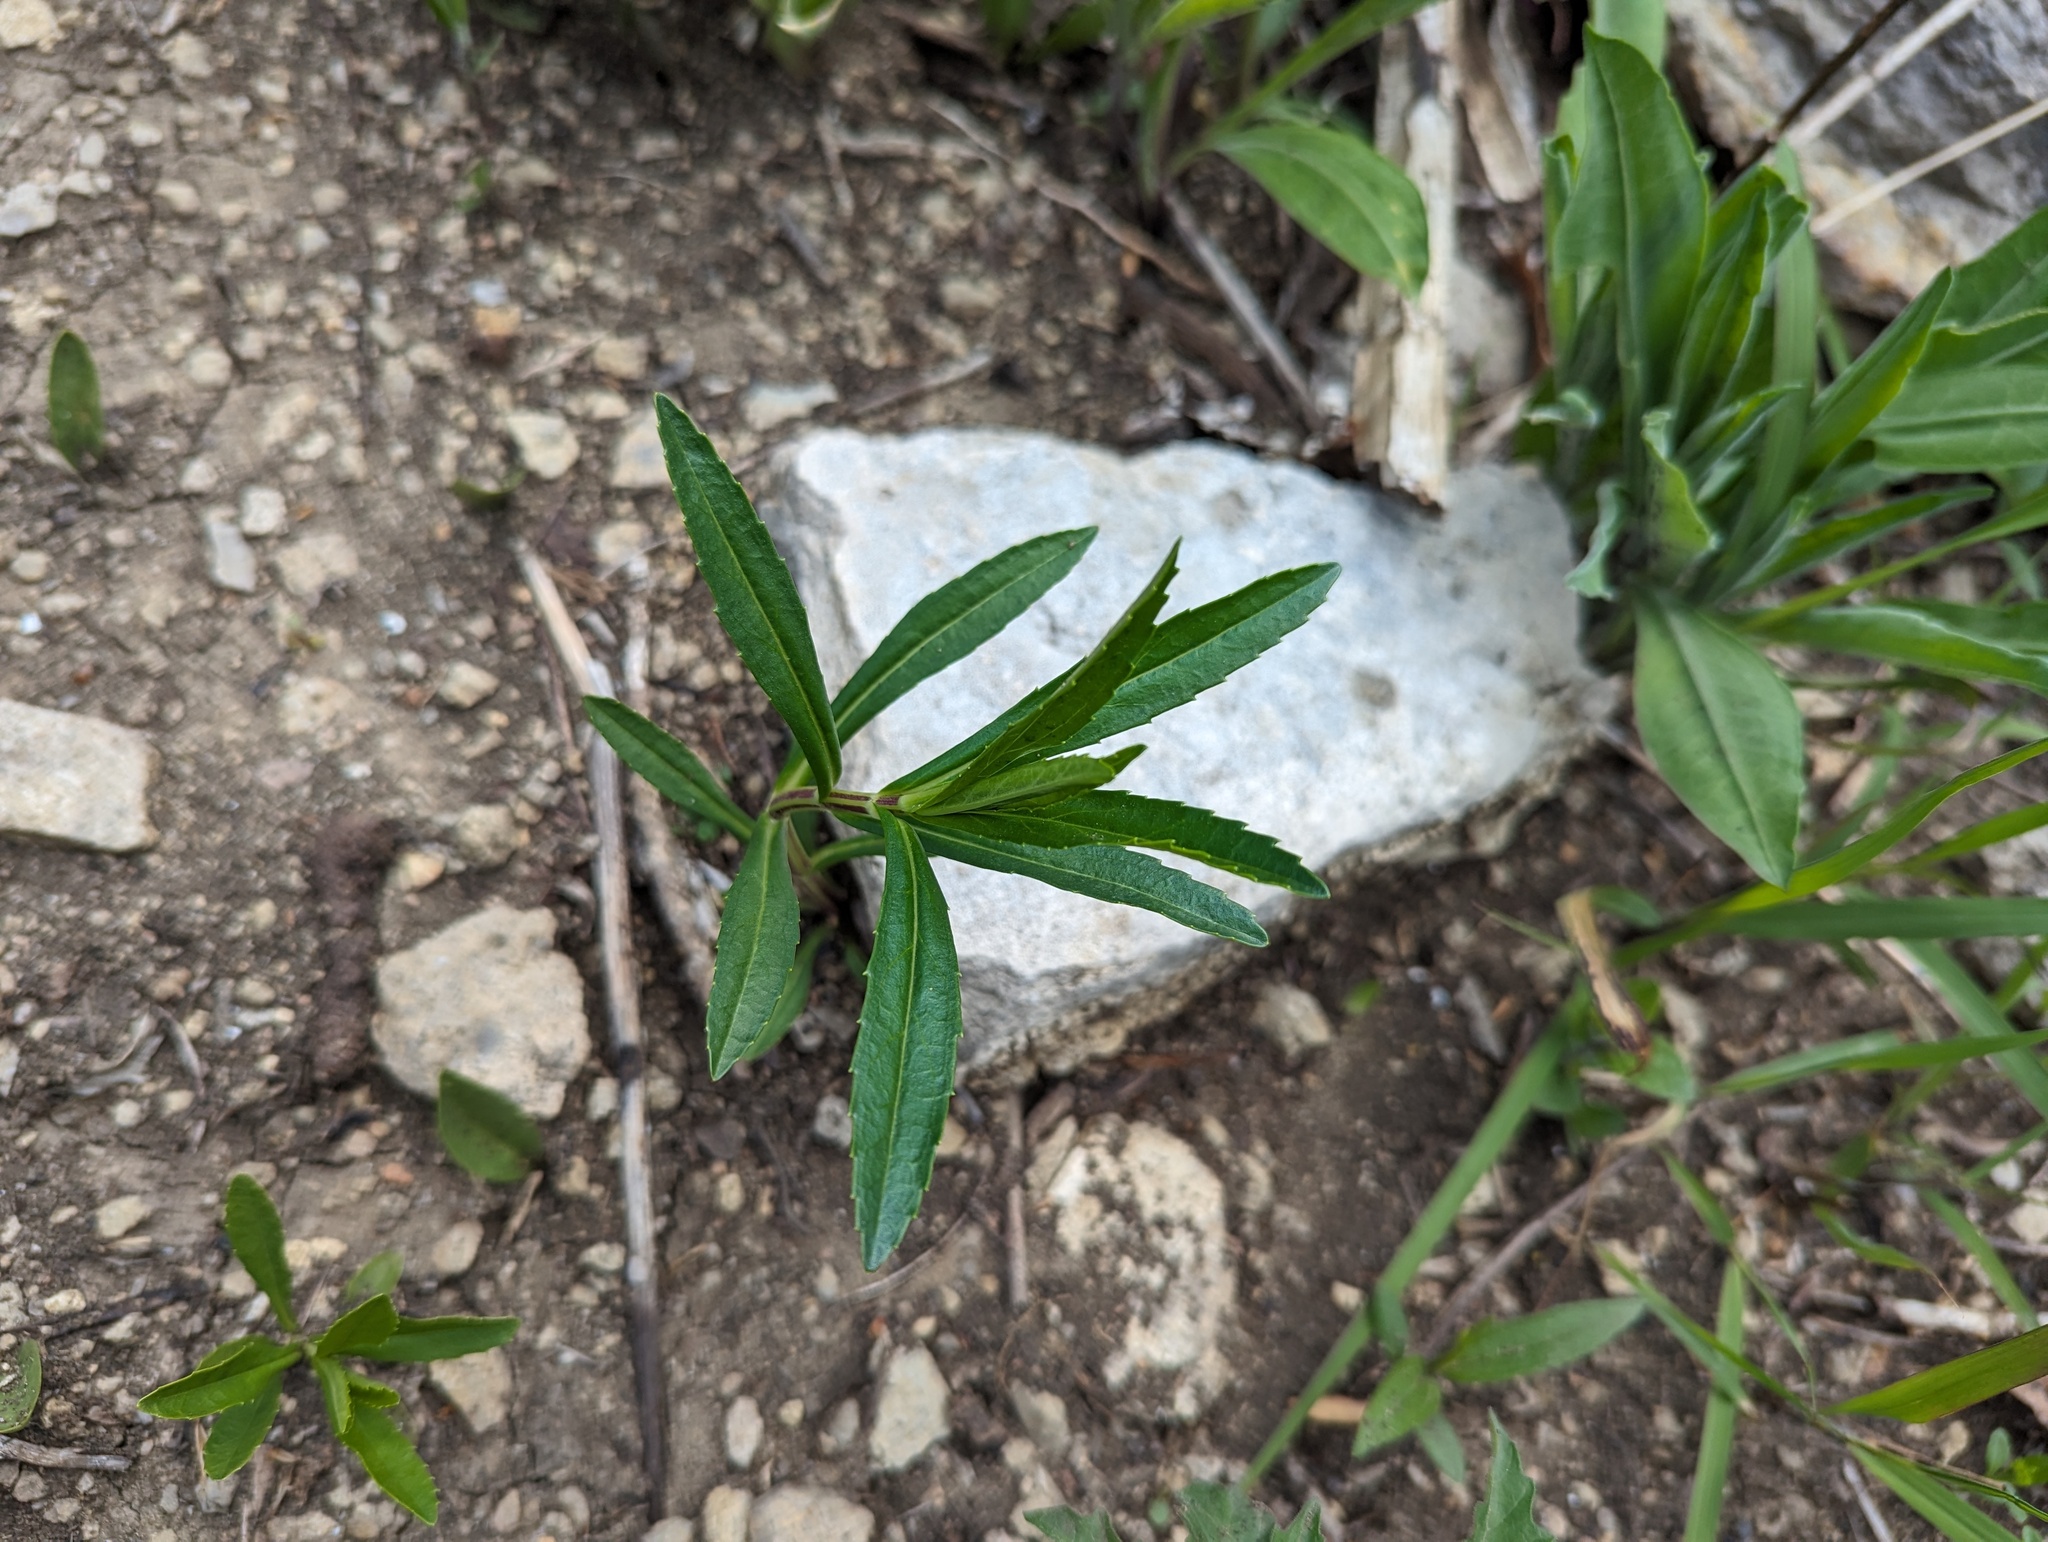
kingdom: Plantae
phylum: Tracheophyta
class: Magnoliopsida
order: Lamiales
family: Lamiaceae
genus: Physostegia
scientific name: Physostegia virginiana
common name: Obedient-plant
